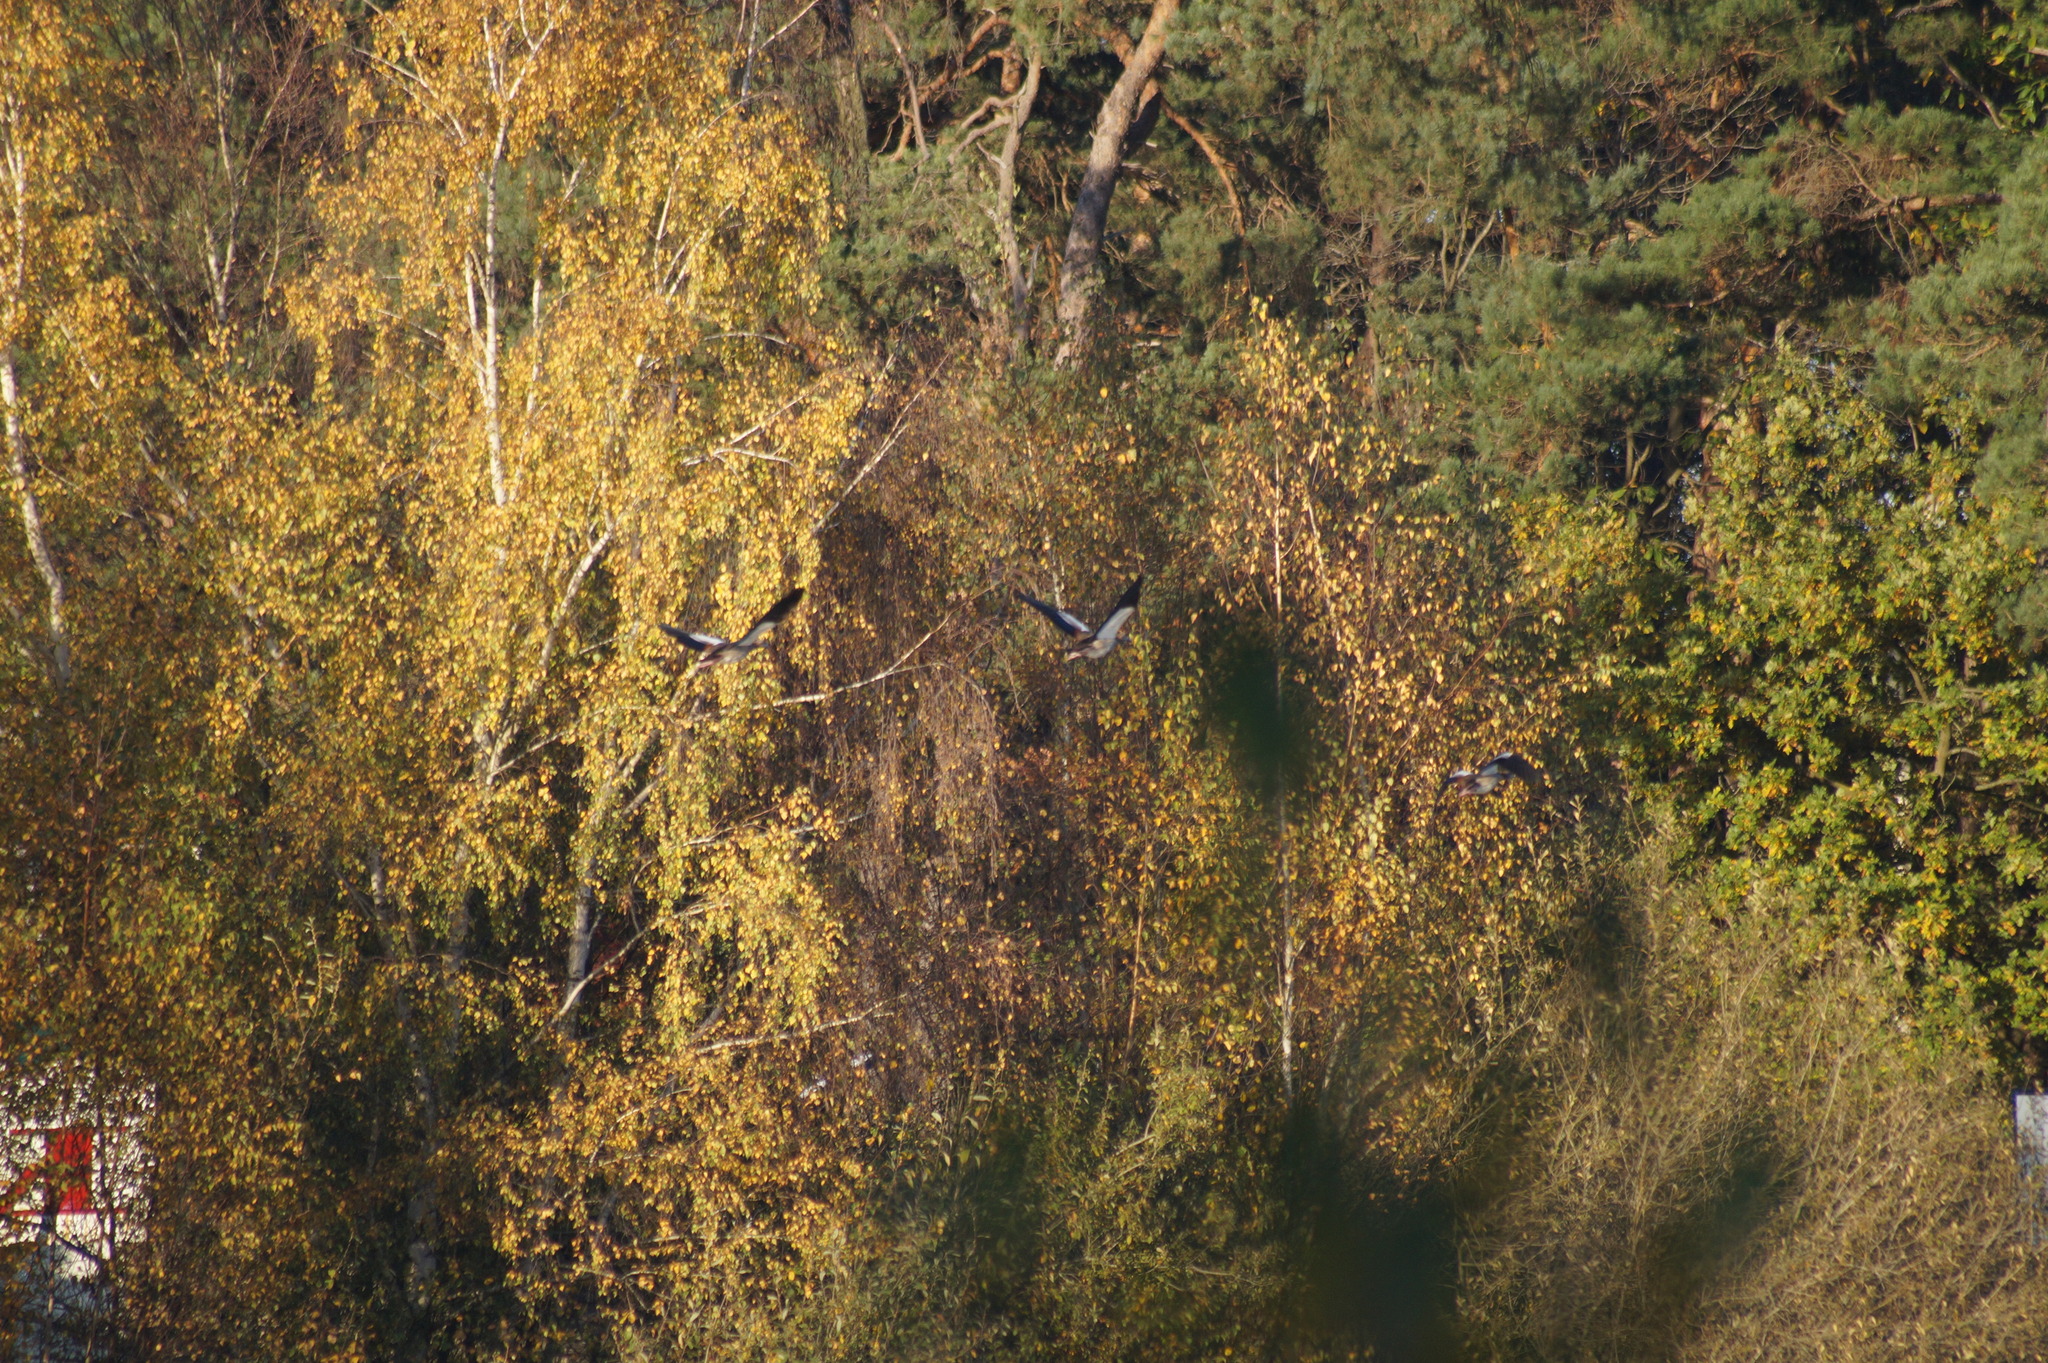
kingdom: Animalia
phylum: Chordata
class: Aves
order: Anseriformes
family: Anatidae
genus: Alopochen
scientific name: Alopochen aegyptiaca
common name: Egyptian goose
